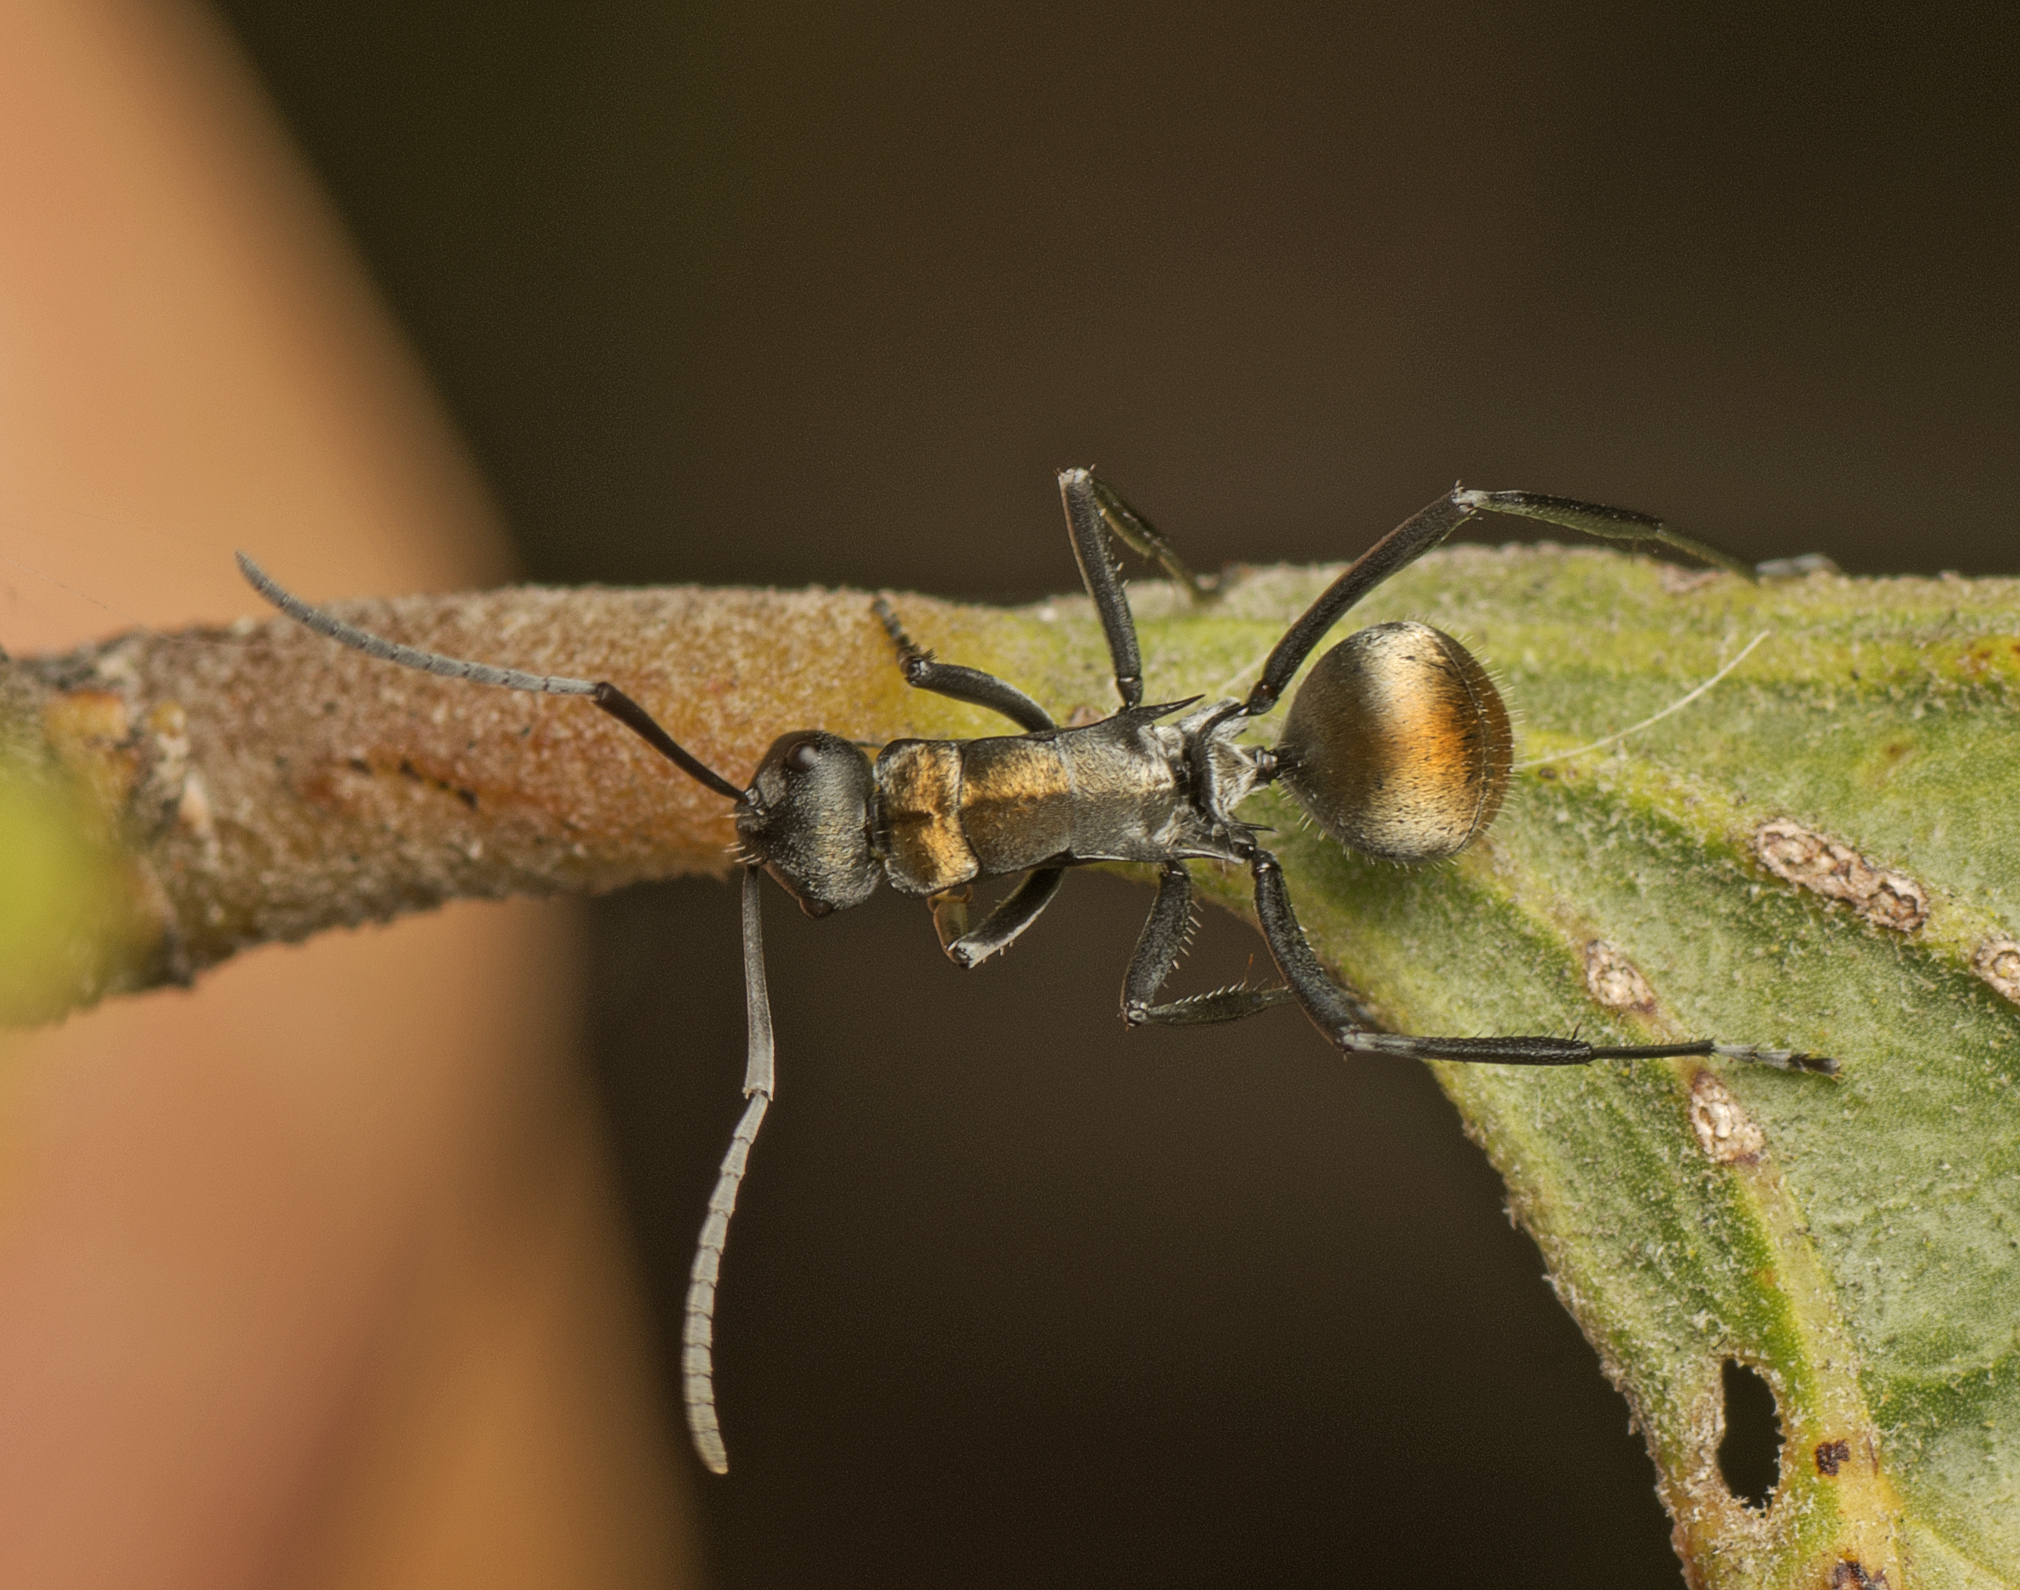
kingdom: Animalia
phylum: Arthropoda
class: Insecta
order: Hymenoptera
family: Formicidae
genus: Polyrhachis
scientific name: Polyrhachis ammon
